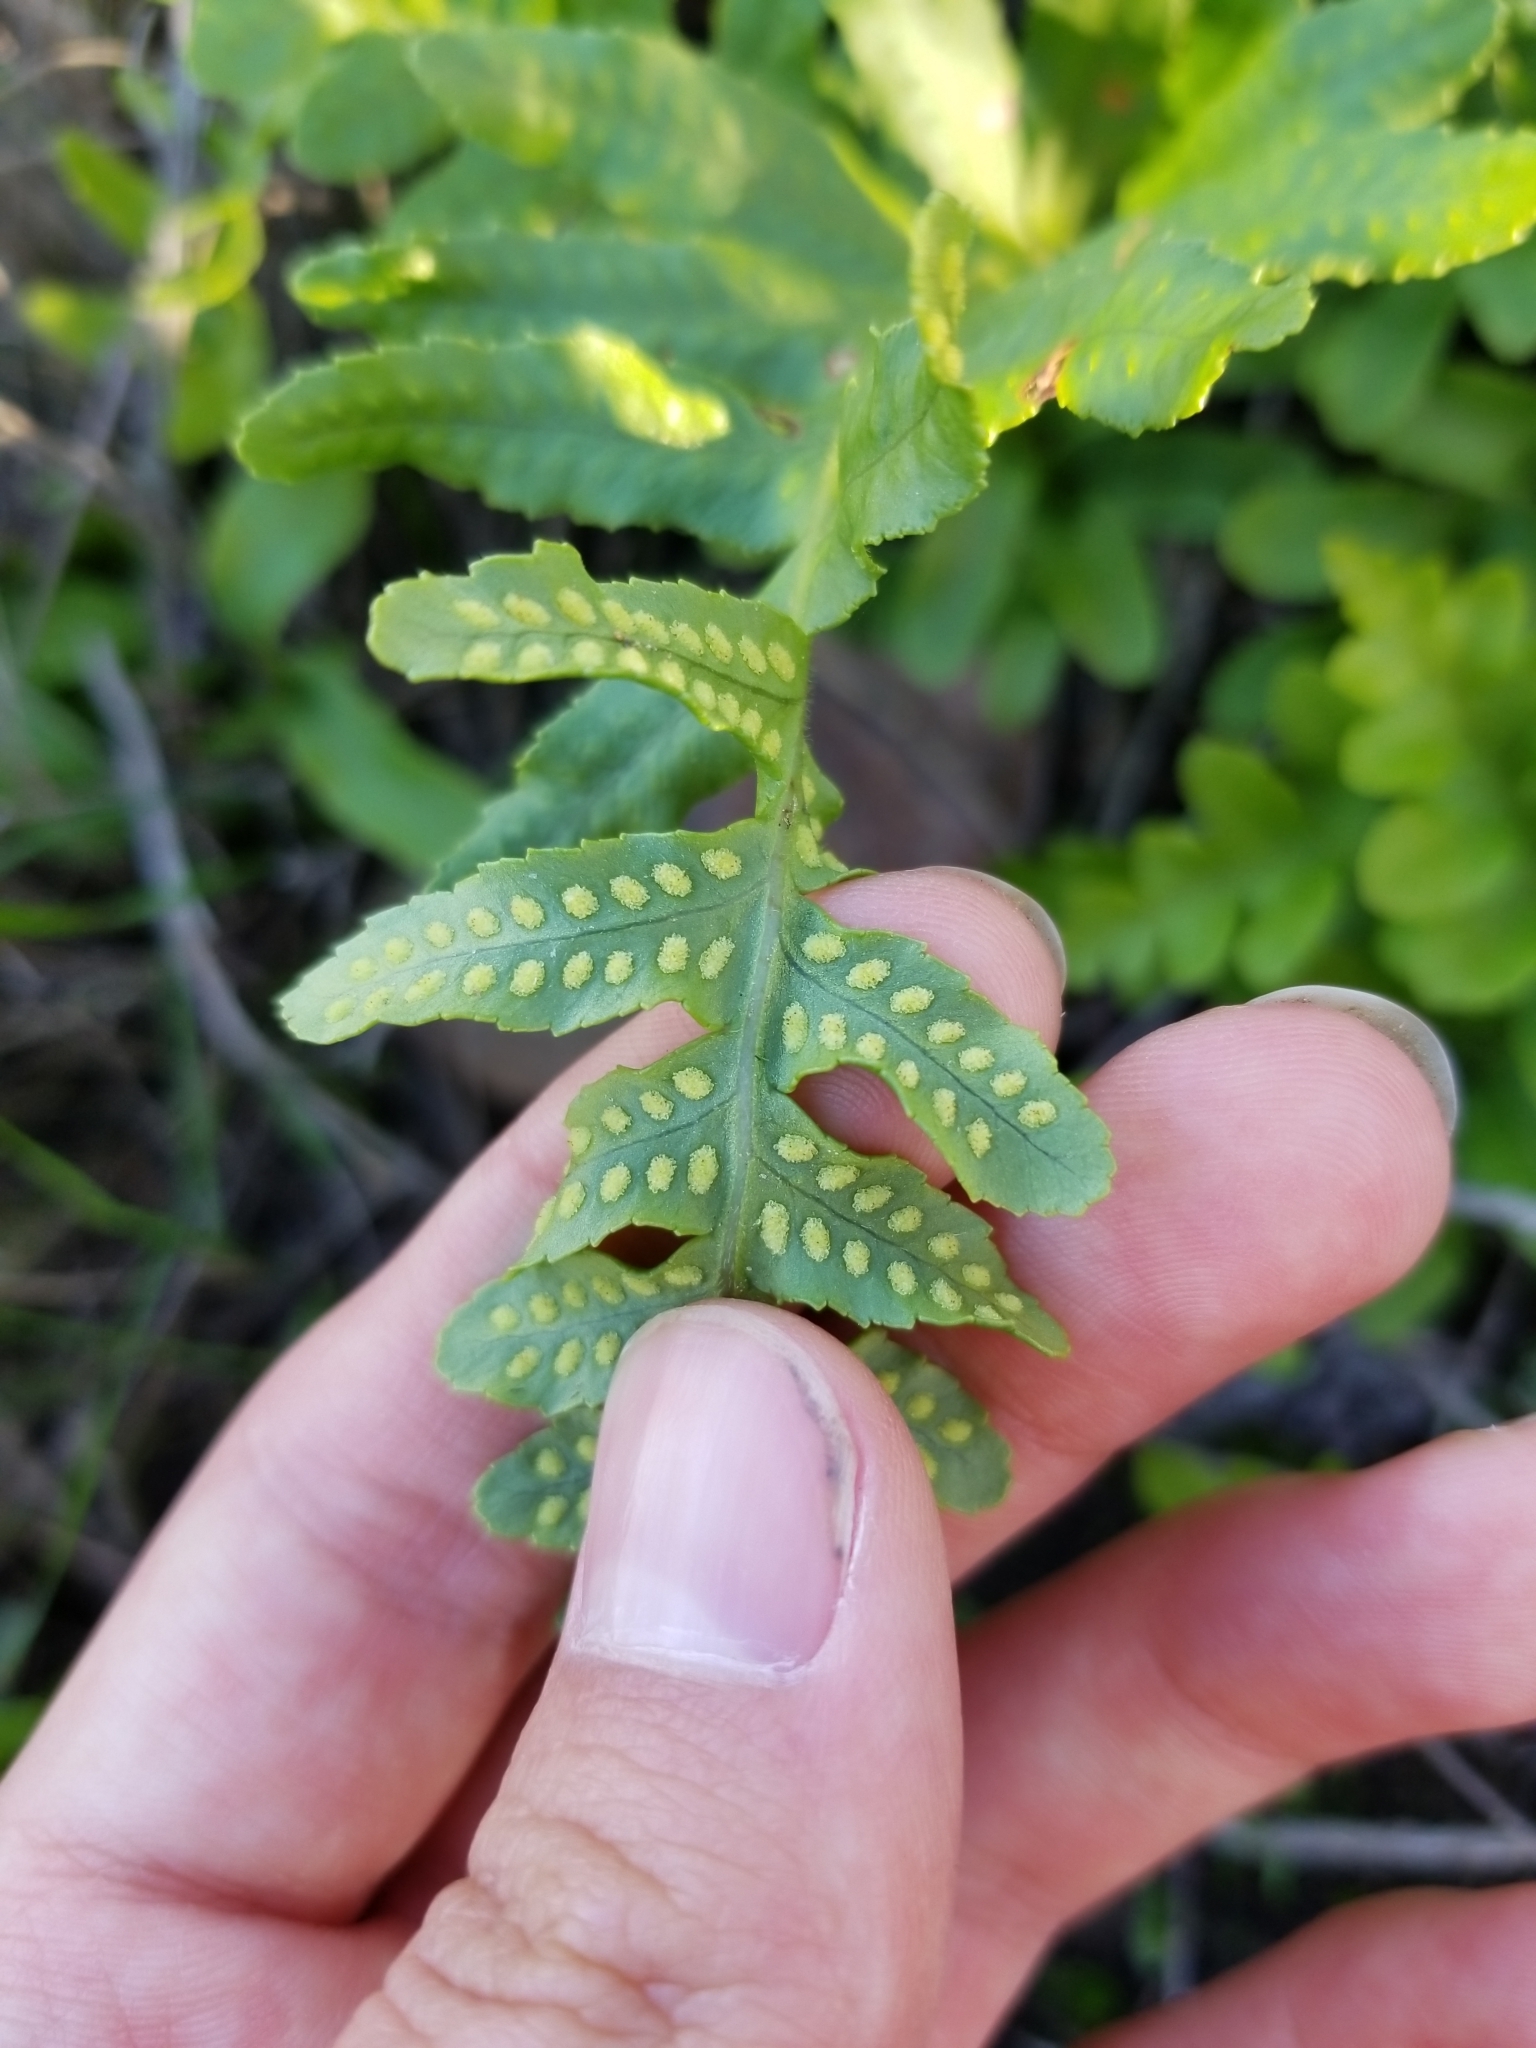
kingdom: Plantae
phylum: Tracheophyta
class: Polypodiopsida
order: Polypodiales
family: Polypodiaceae
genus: Polypodium
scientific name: Polypodium californicum
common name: California polypody
